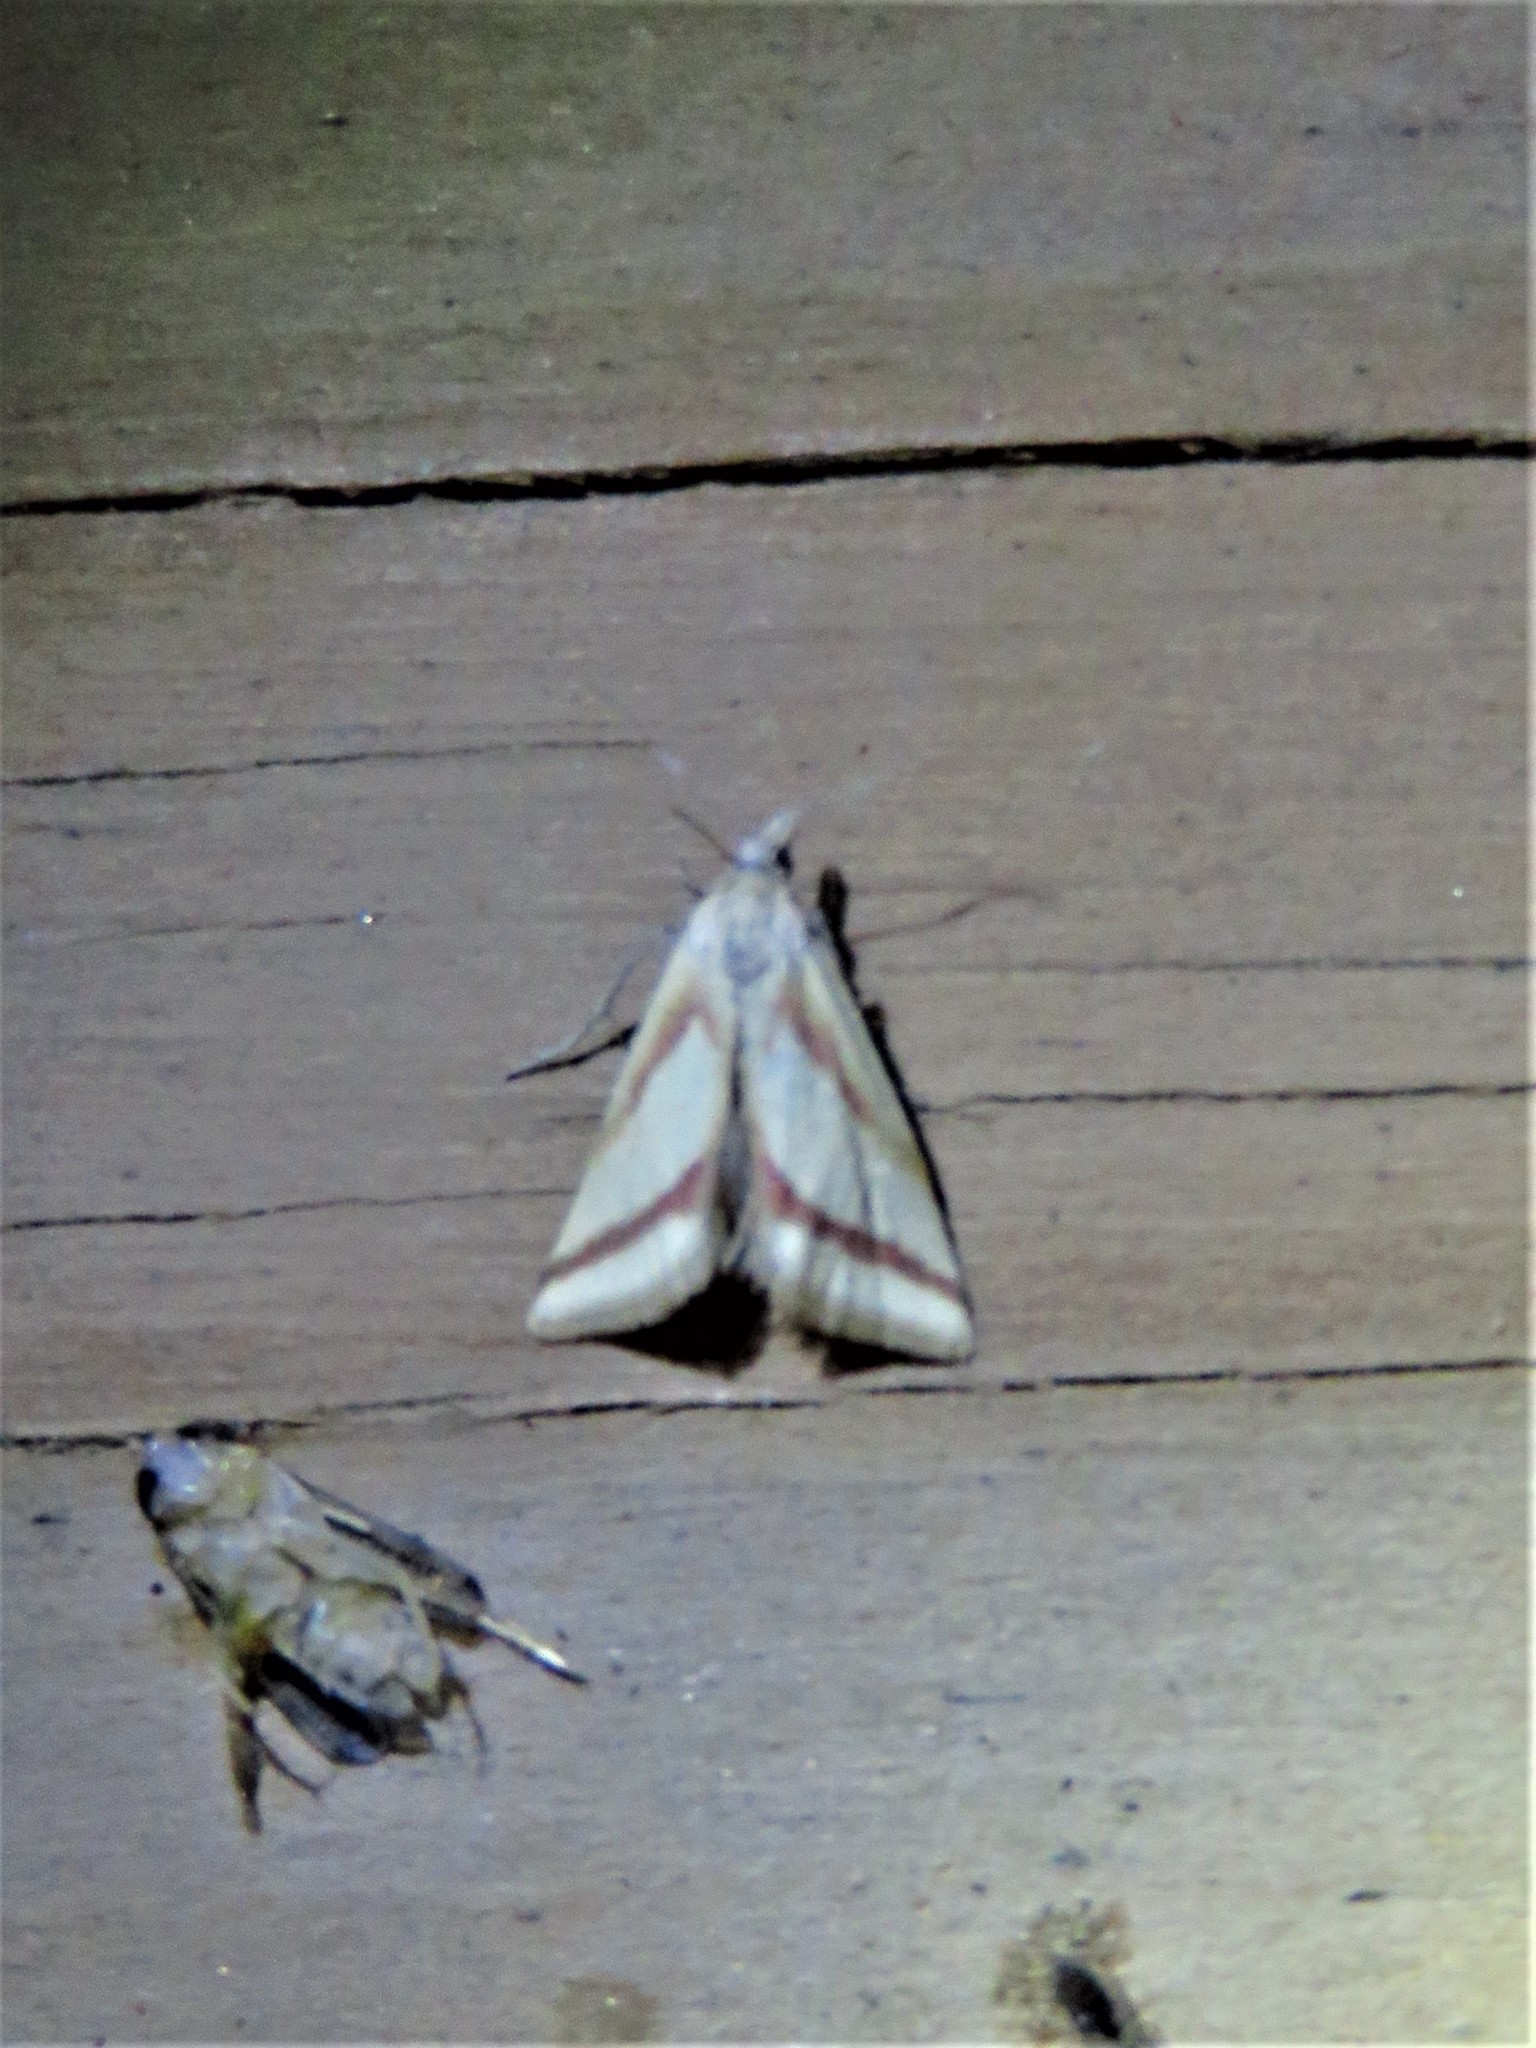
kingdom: Animalia
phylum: Arthropoda
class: Insecta
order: Lepidoptera
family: Crambidae
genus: Microtheoris
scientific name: Microtheoris vibicalis
